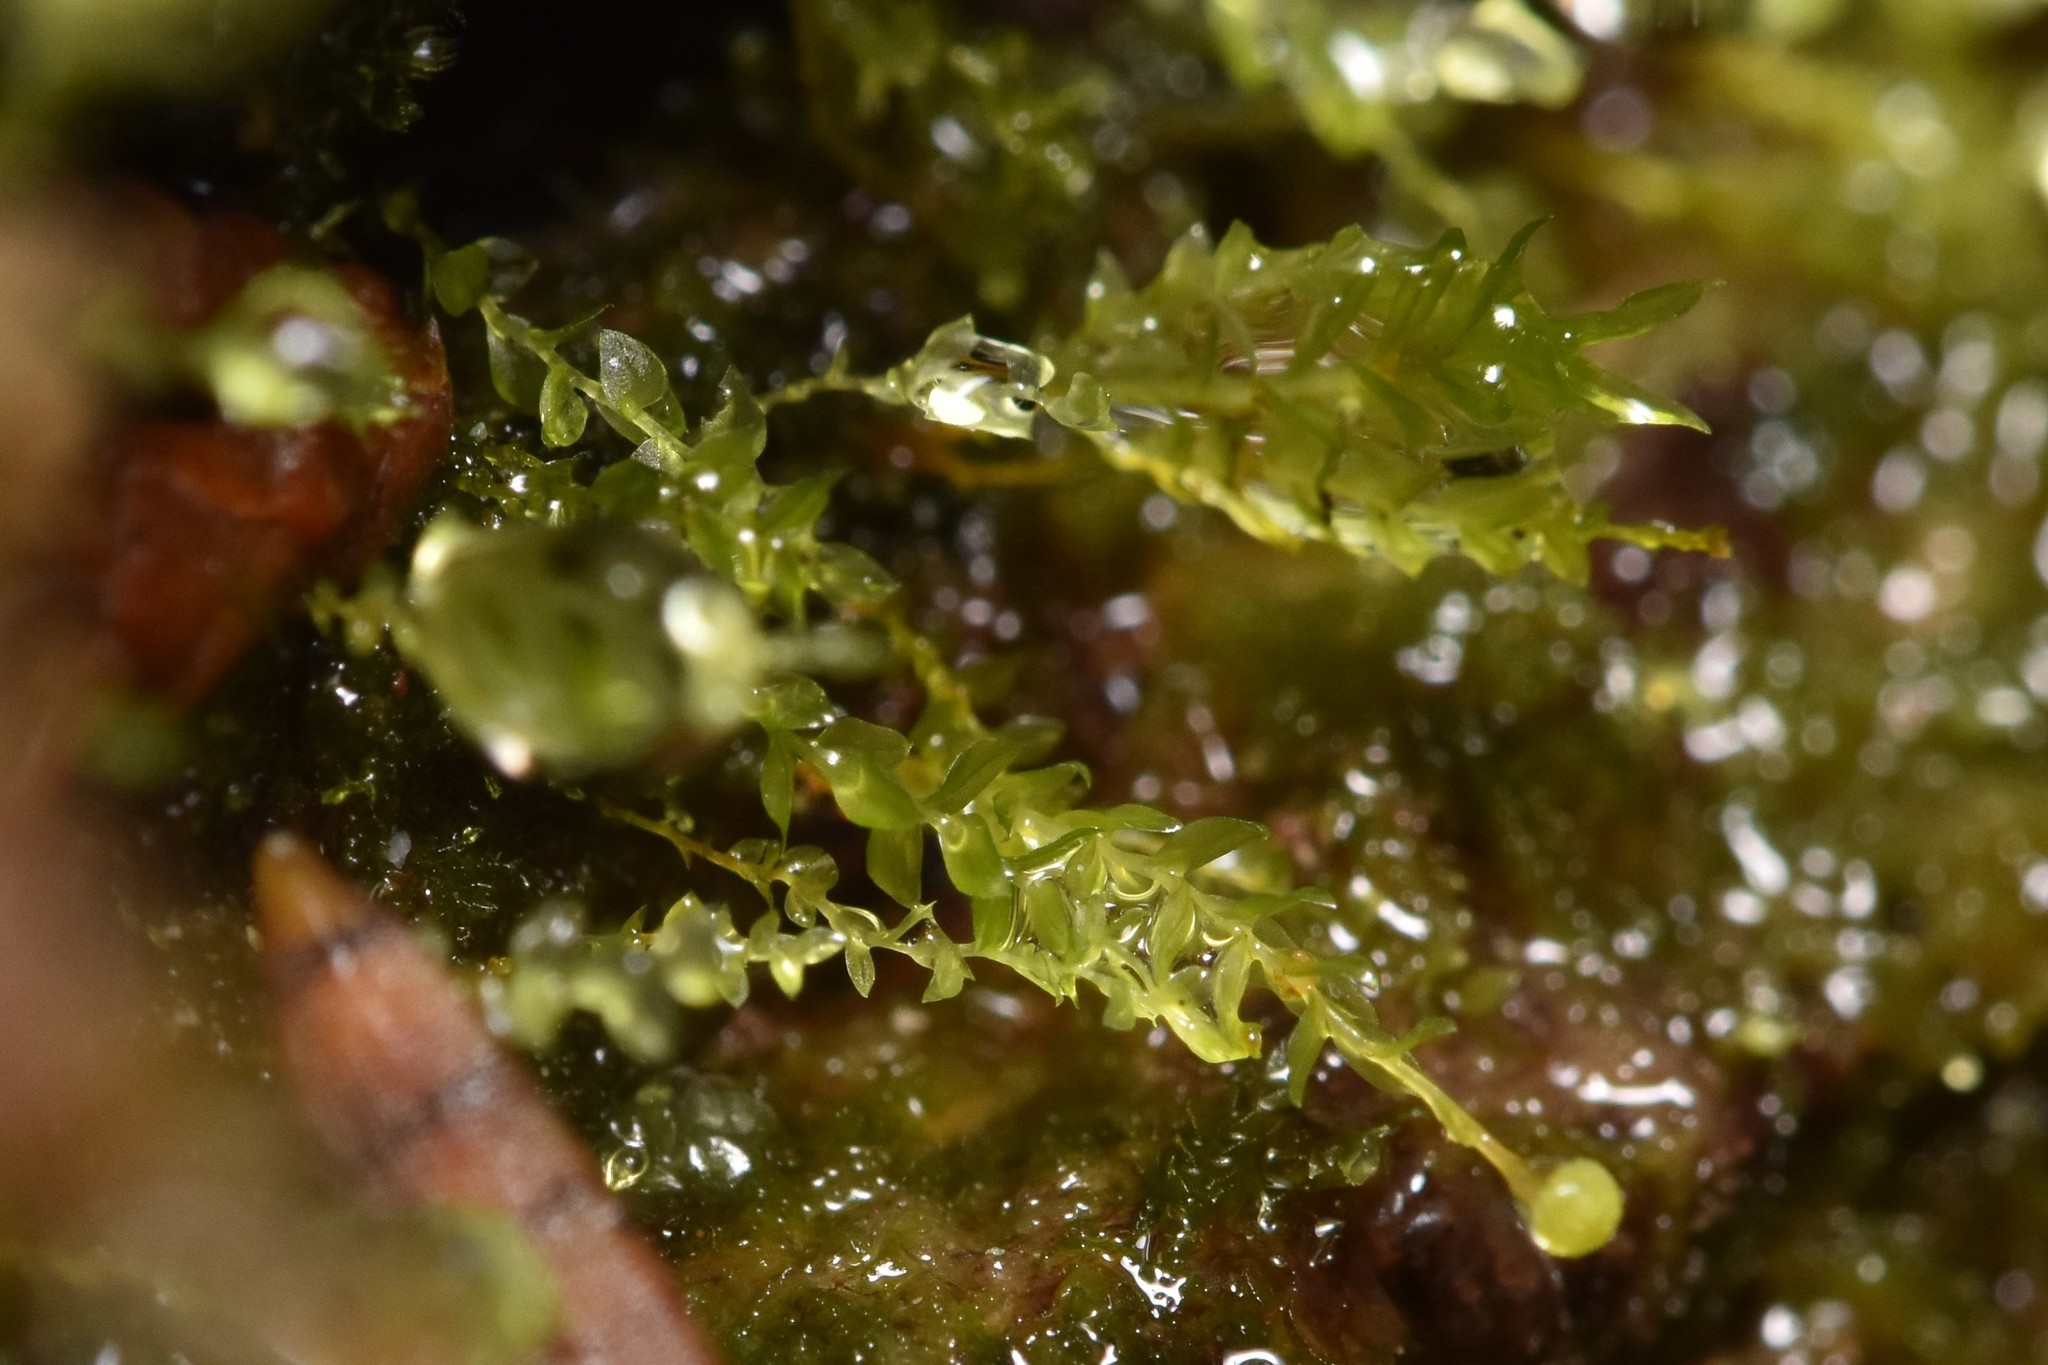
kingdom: Plantae
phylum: Bryophyta
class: Polytrichopsida
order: Tetraphidales
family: Tetraphidaceae
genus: Tetraphis
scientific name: Tetraphis pellucida
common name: Common four-toothed moss
